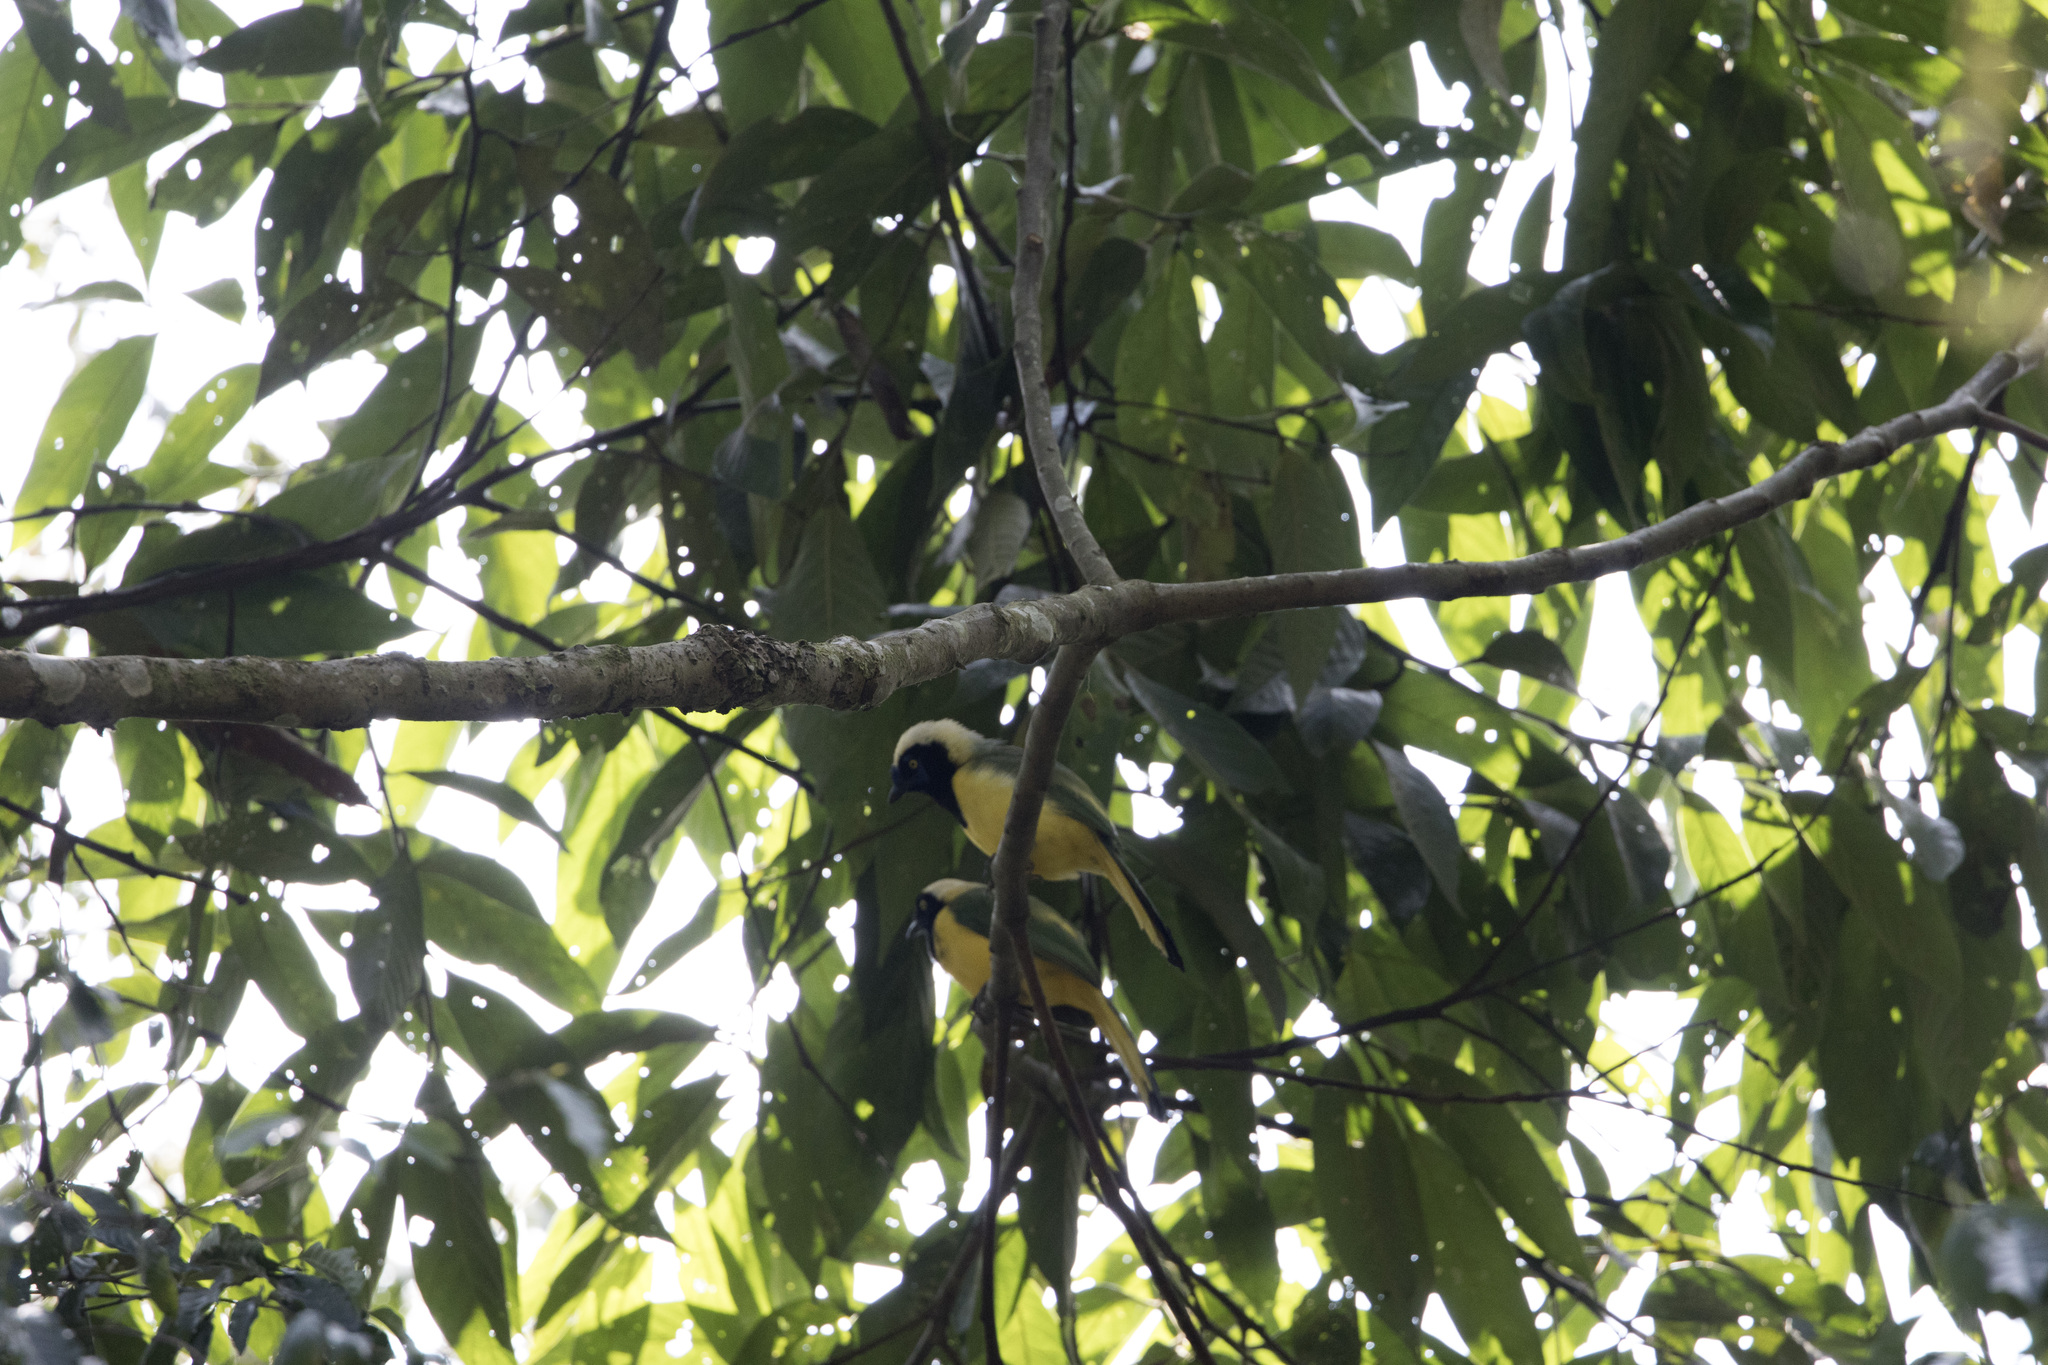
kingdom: Animalia
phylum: Chordata
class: Aves
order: Passeriformes
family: Corvidae
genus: Cyanocorax
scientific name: Cyanocorax yncas
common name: Green jay
